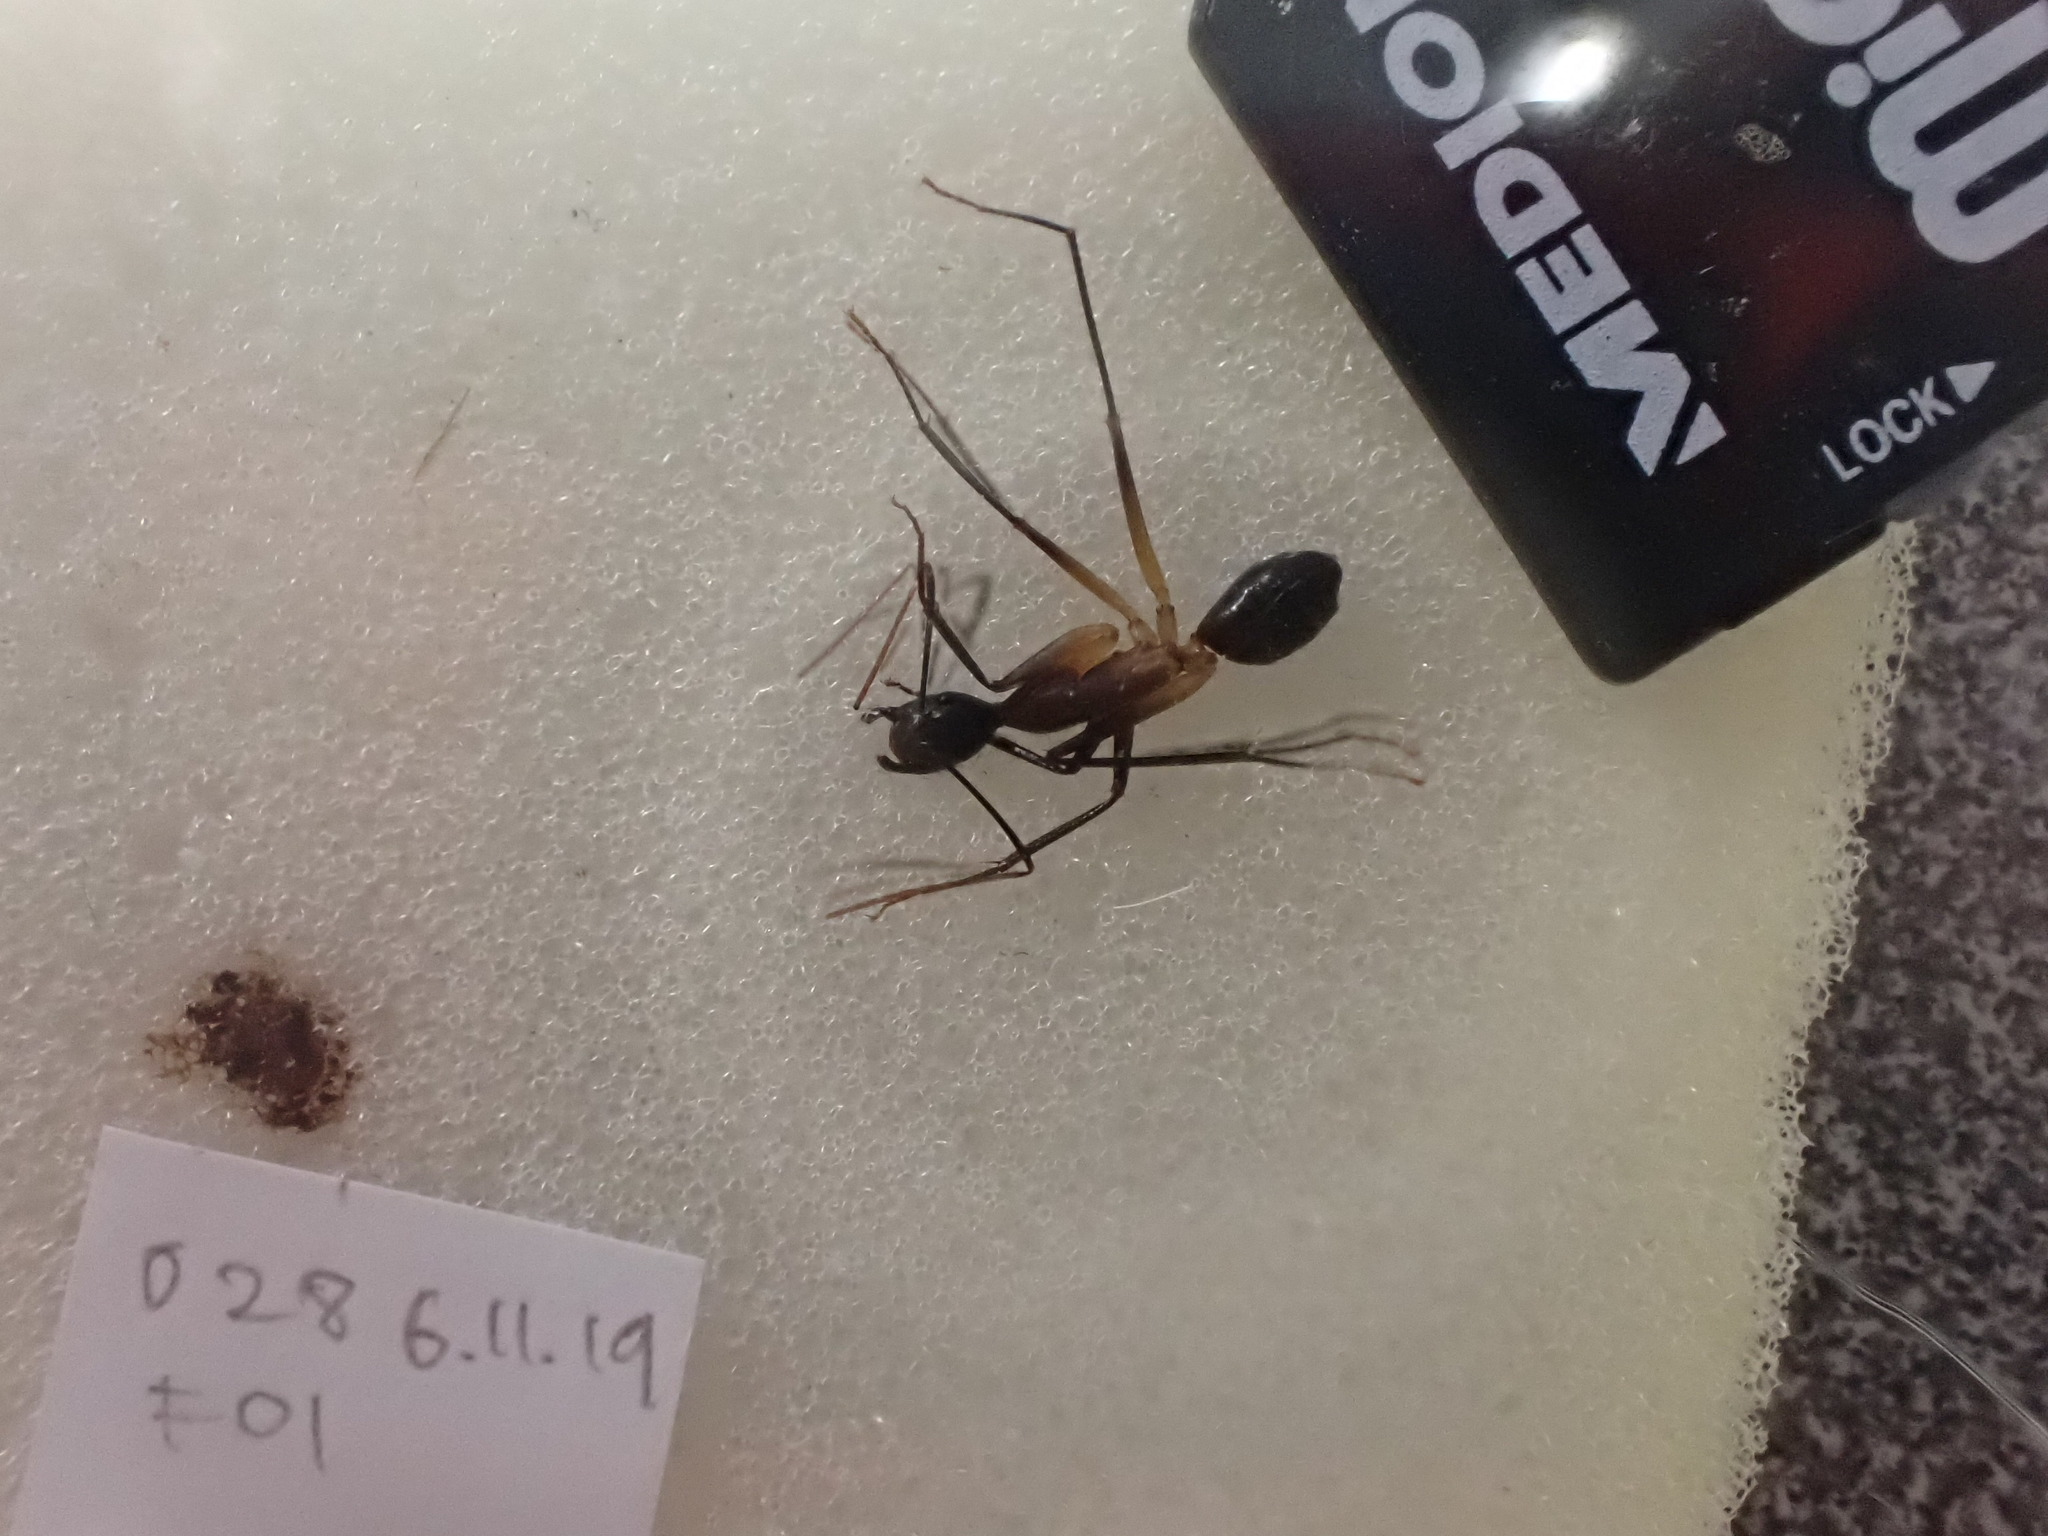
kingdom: Animalia
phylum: Arthropoda
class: Insecta
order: Hymenoptera
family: Formicidae
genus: Camponotus
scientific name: Camponotus
